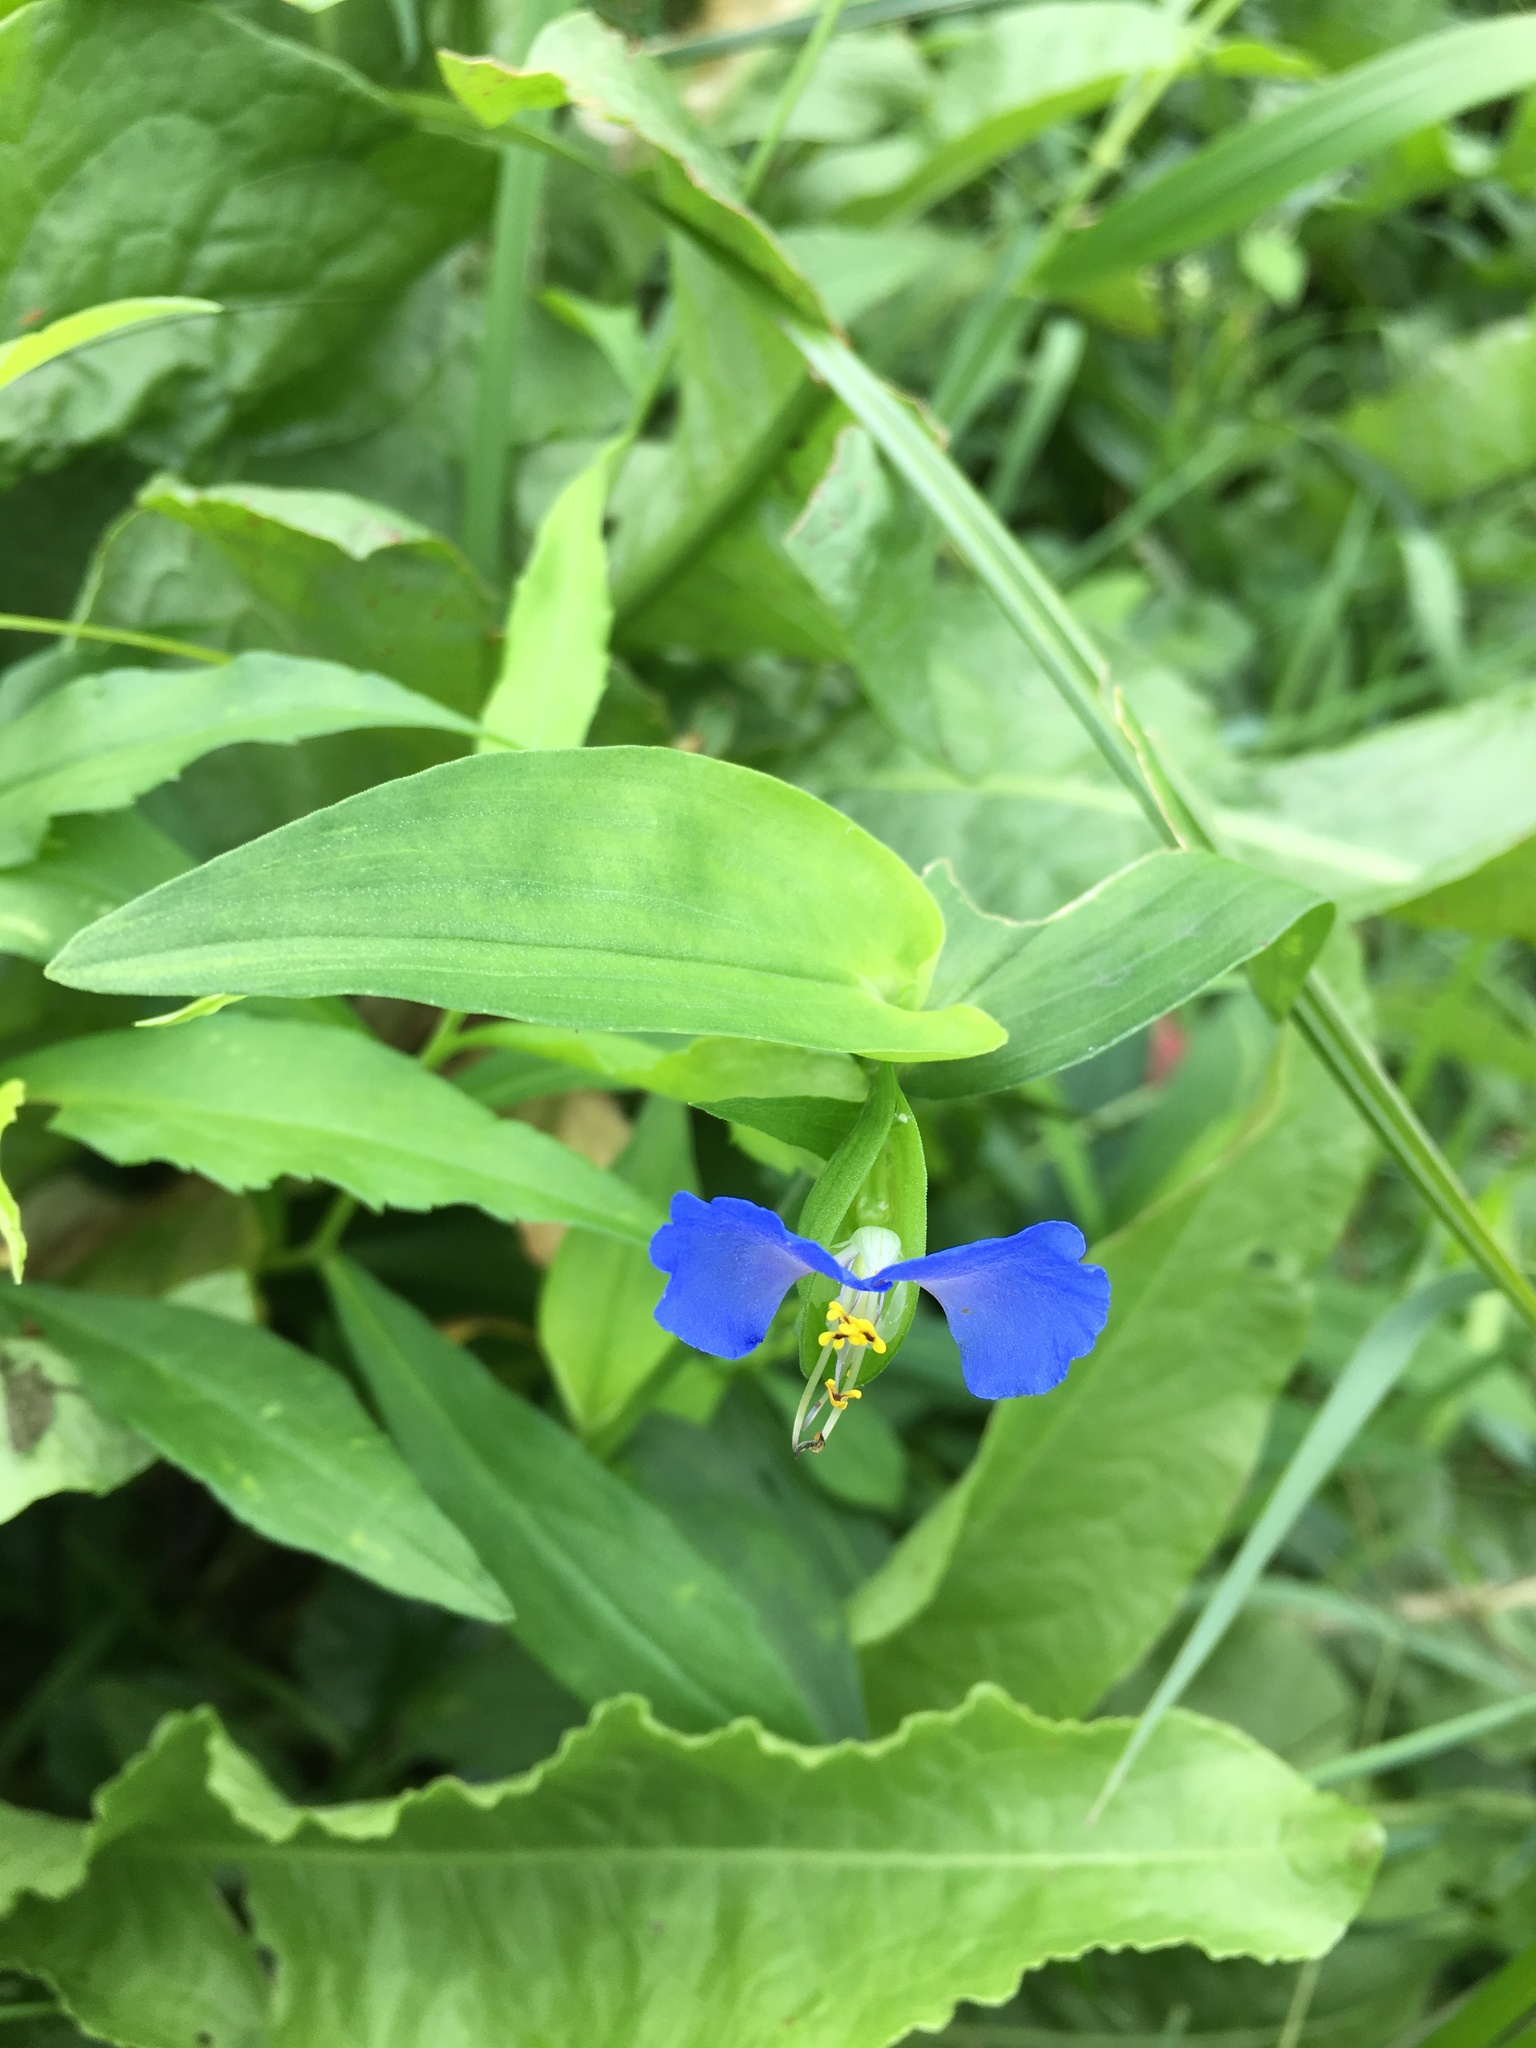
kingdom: Plantae
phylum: Tracheophyta
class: Liliopsida
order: Commelinales
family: Commelinaceae
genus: Commelina
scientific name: Commelina communis
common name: Asiatic dayflower
